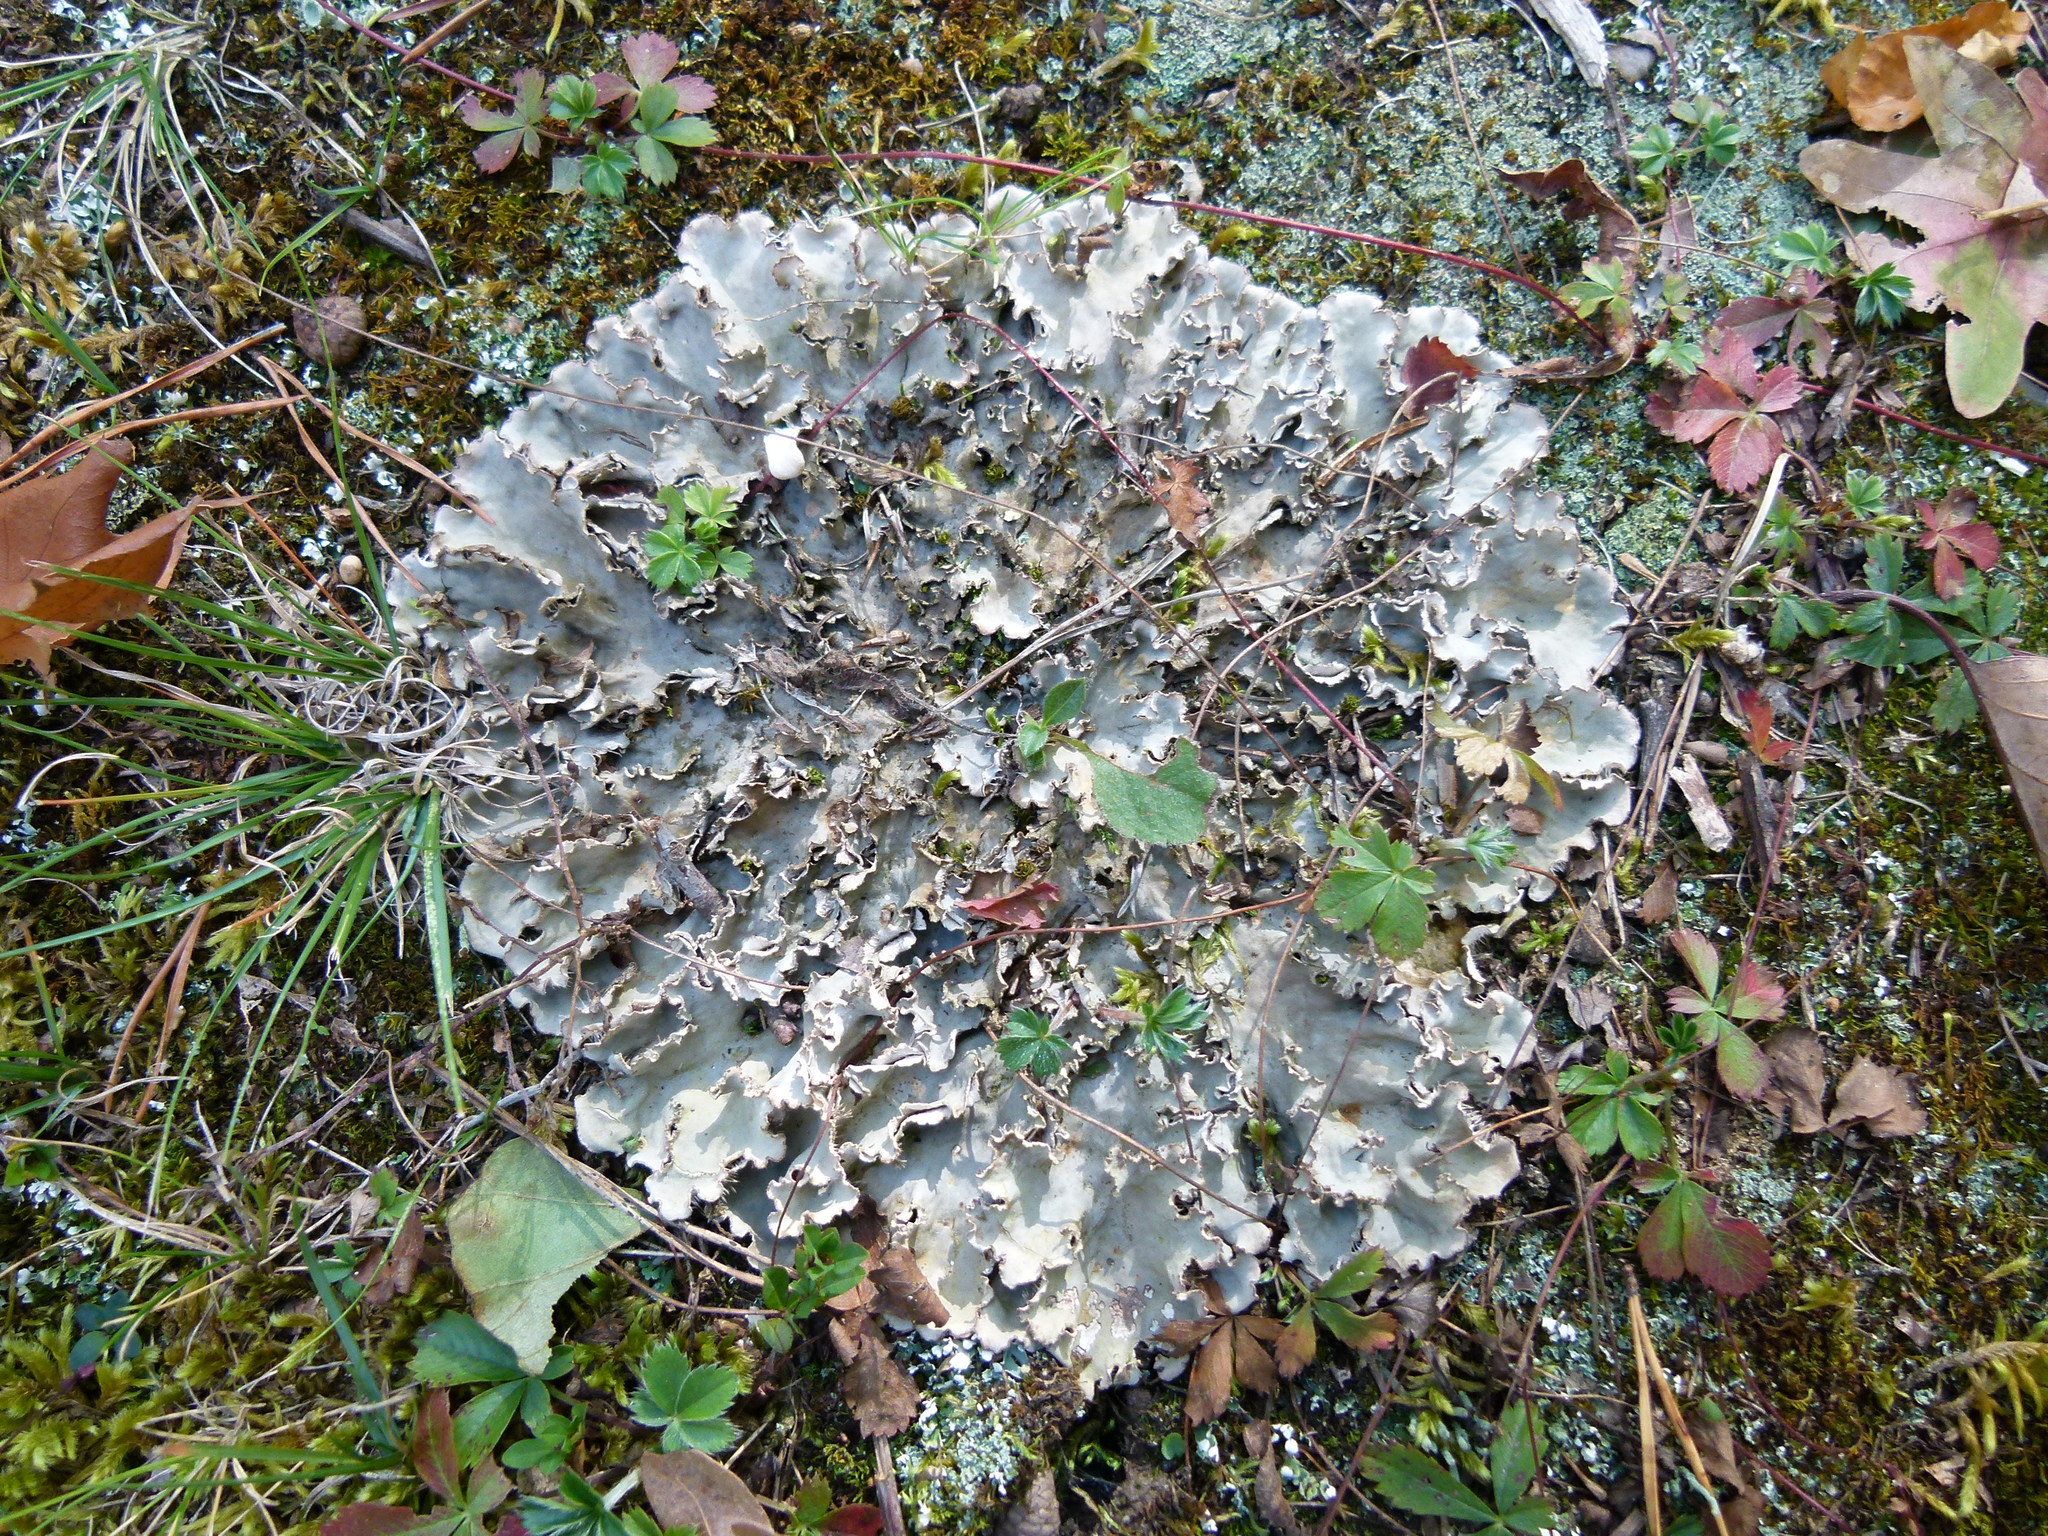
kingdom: Fungi
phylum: Ascomycota
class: Lecanoromycetes
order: Peltigerales
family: Peltigeraceae
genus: Peltigera
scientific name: Peltigera canina
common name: Dog pelt lichen
